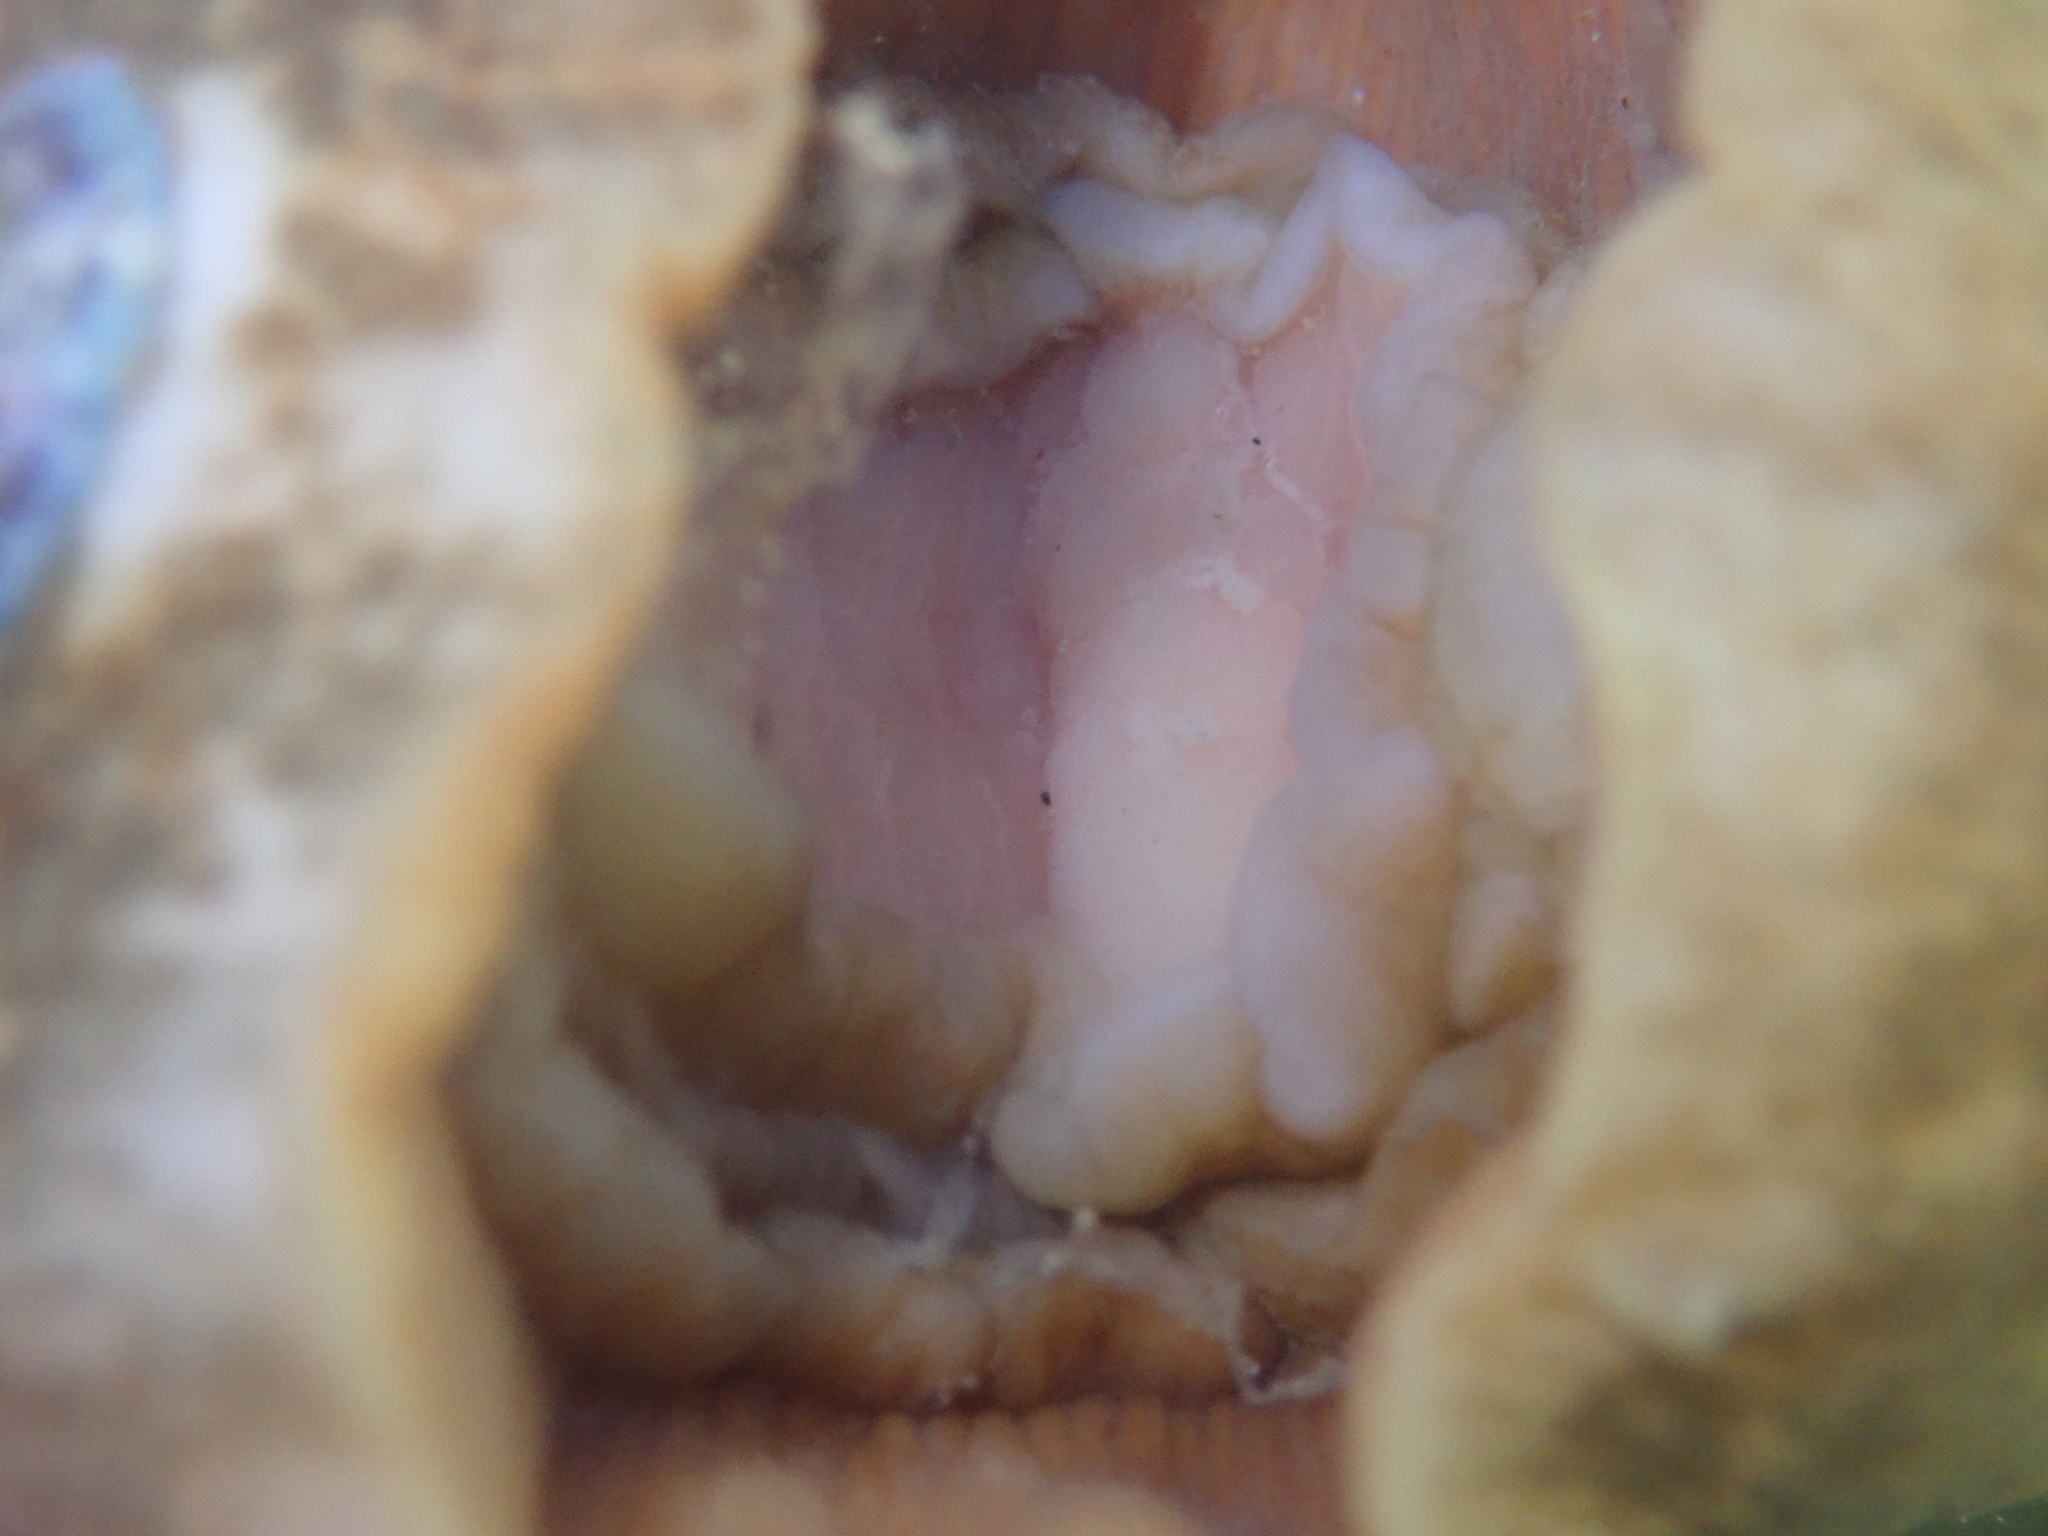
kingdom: Animalia
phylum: Mollusca
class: Polyplacophora
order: Chitonida
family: Acanthochitonidae
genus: Notoplax
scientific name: Notoplax violacea
